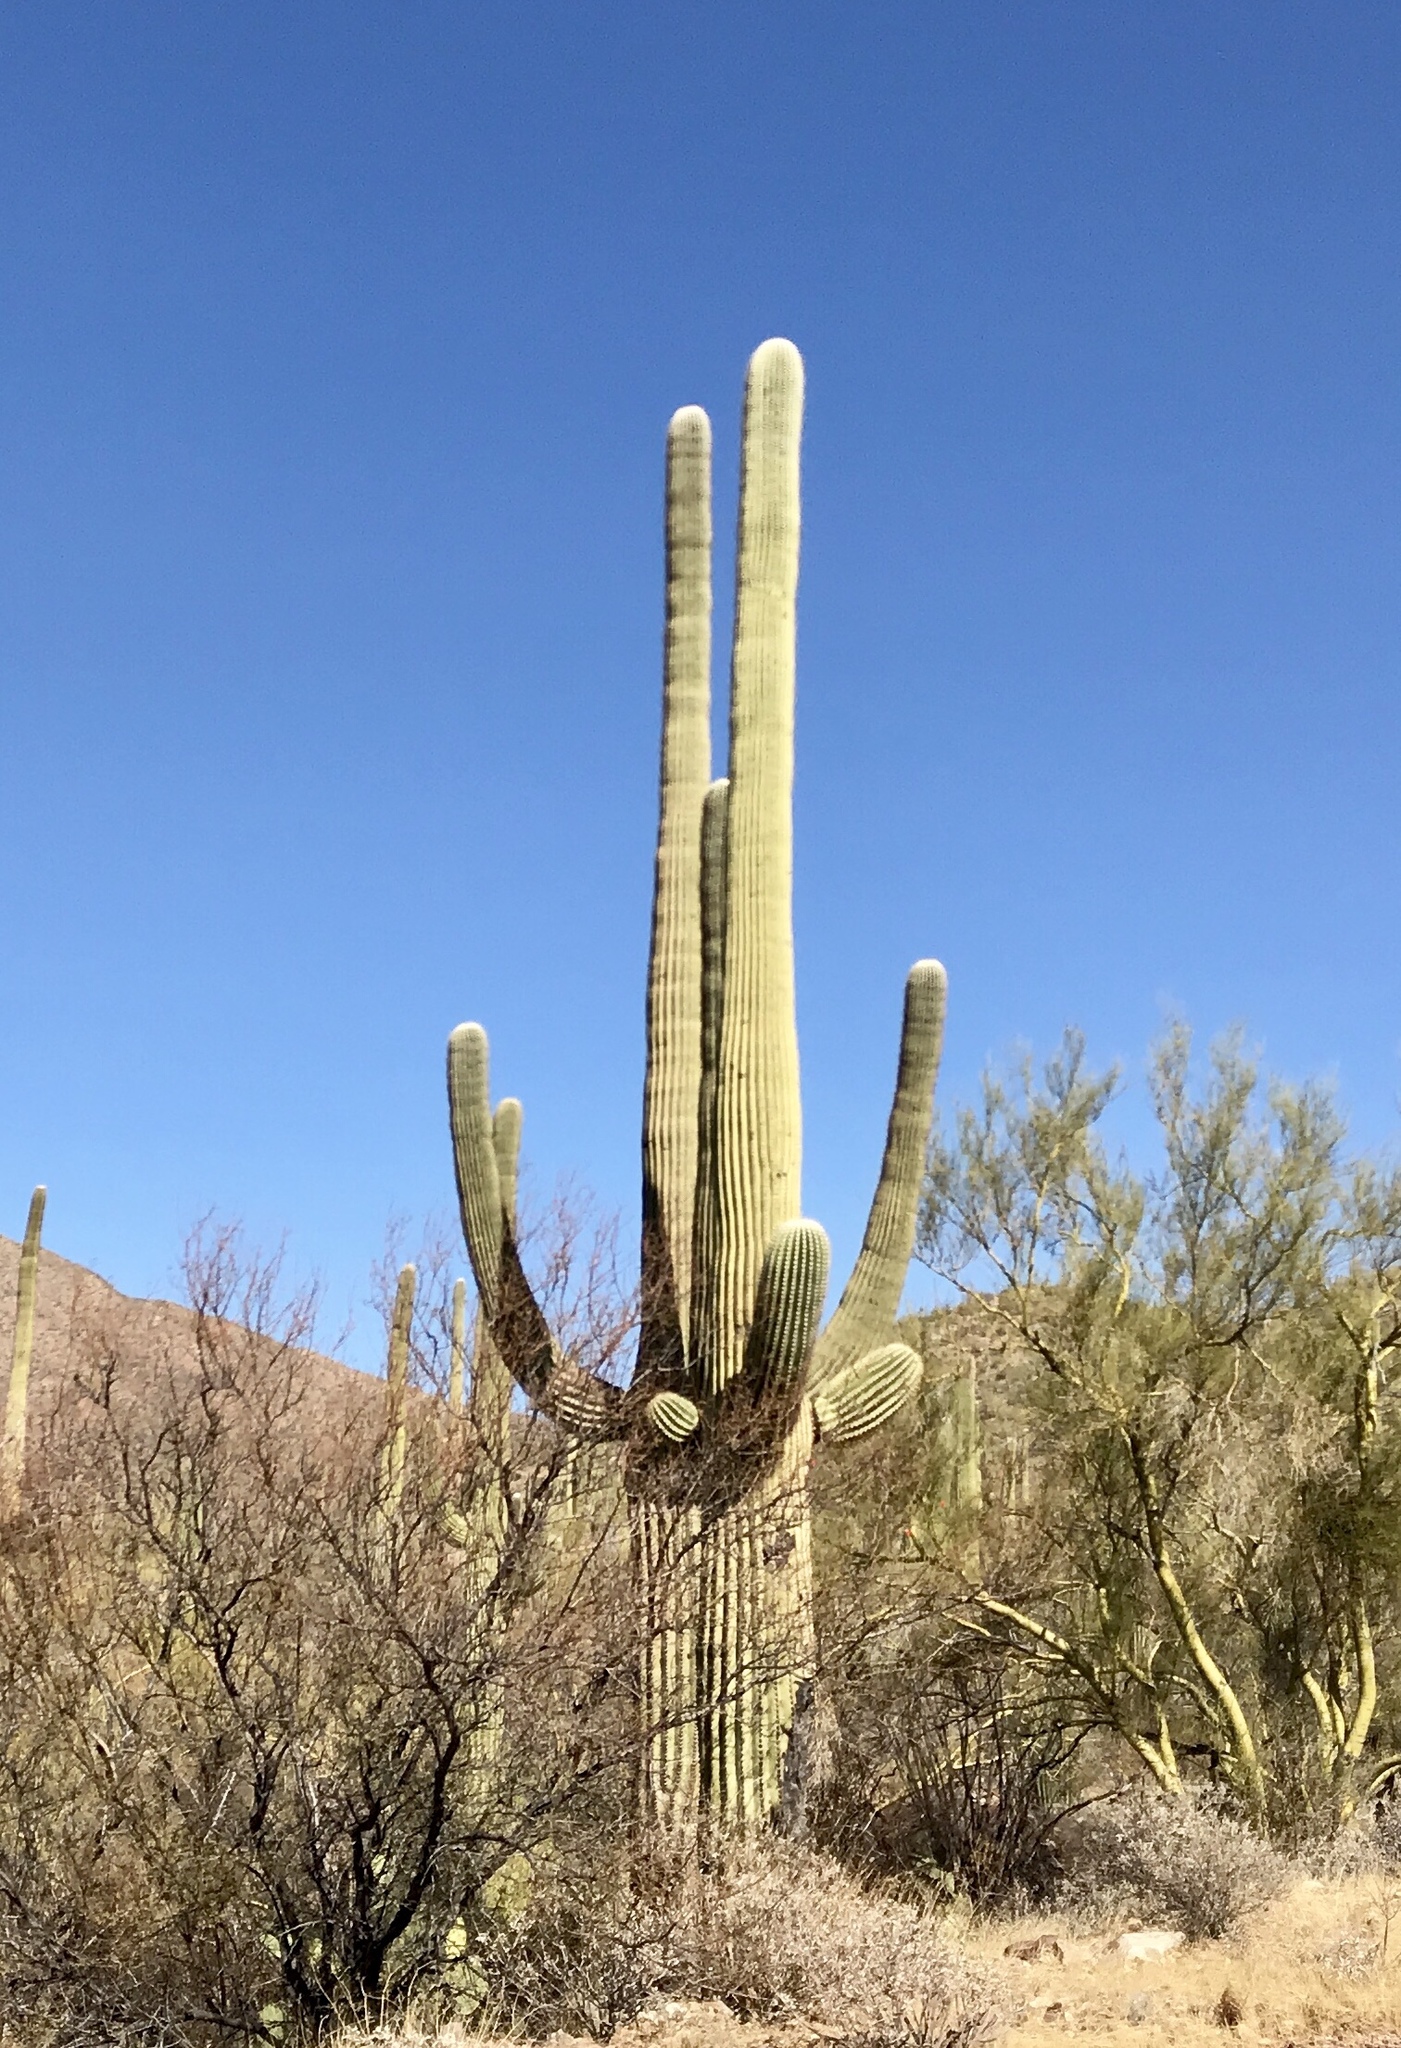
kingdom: Plantae
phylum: Tracheophyta
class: Magnoliopsida
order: Caryophyllales
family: Cactaceae
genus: Carnegiea
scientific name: Carnegiea gigantea
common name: Saguaro
